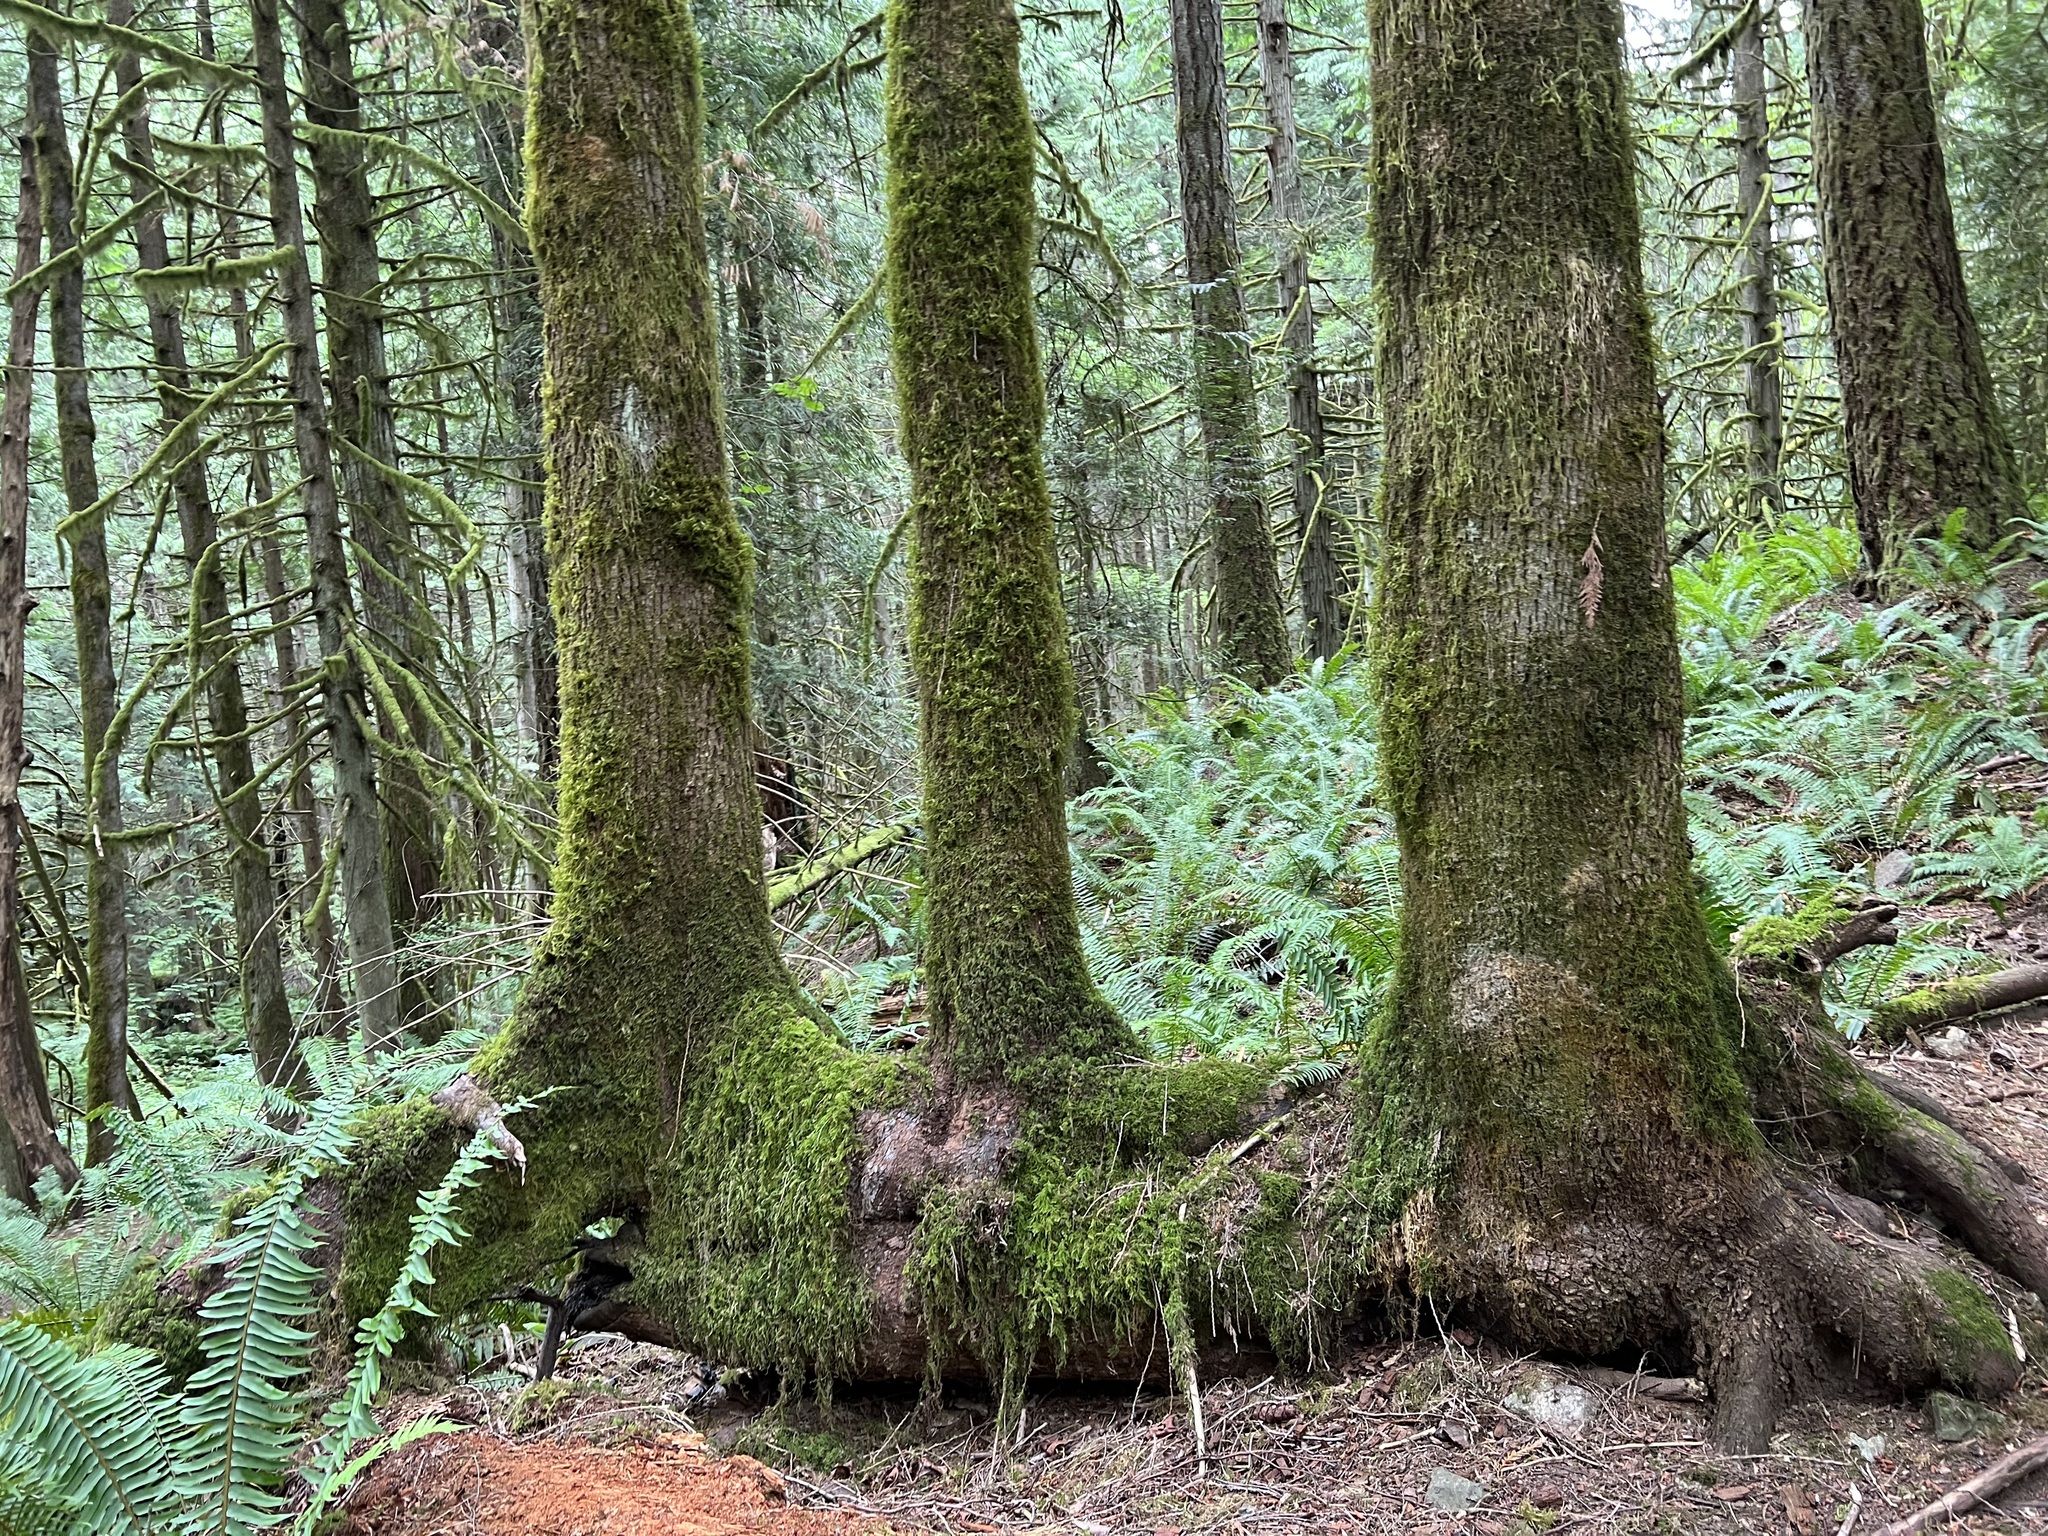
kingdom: Plantae
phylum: Tracheophyta
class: Magnoliopsida
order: Sapindales
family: Sapindaceae
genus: Acer
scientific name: Acer macrophyllum
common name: Oregon maple
